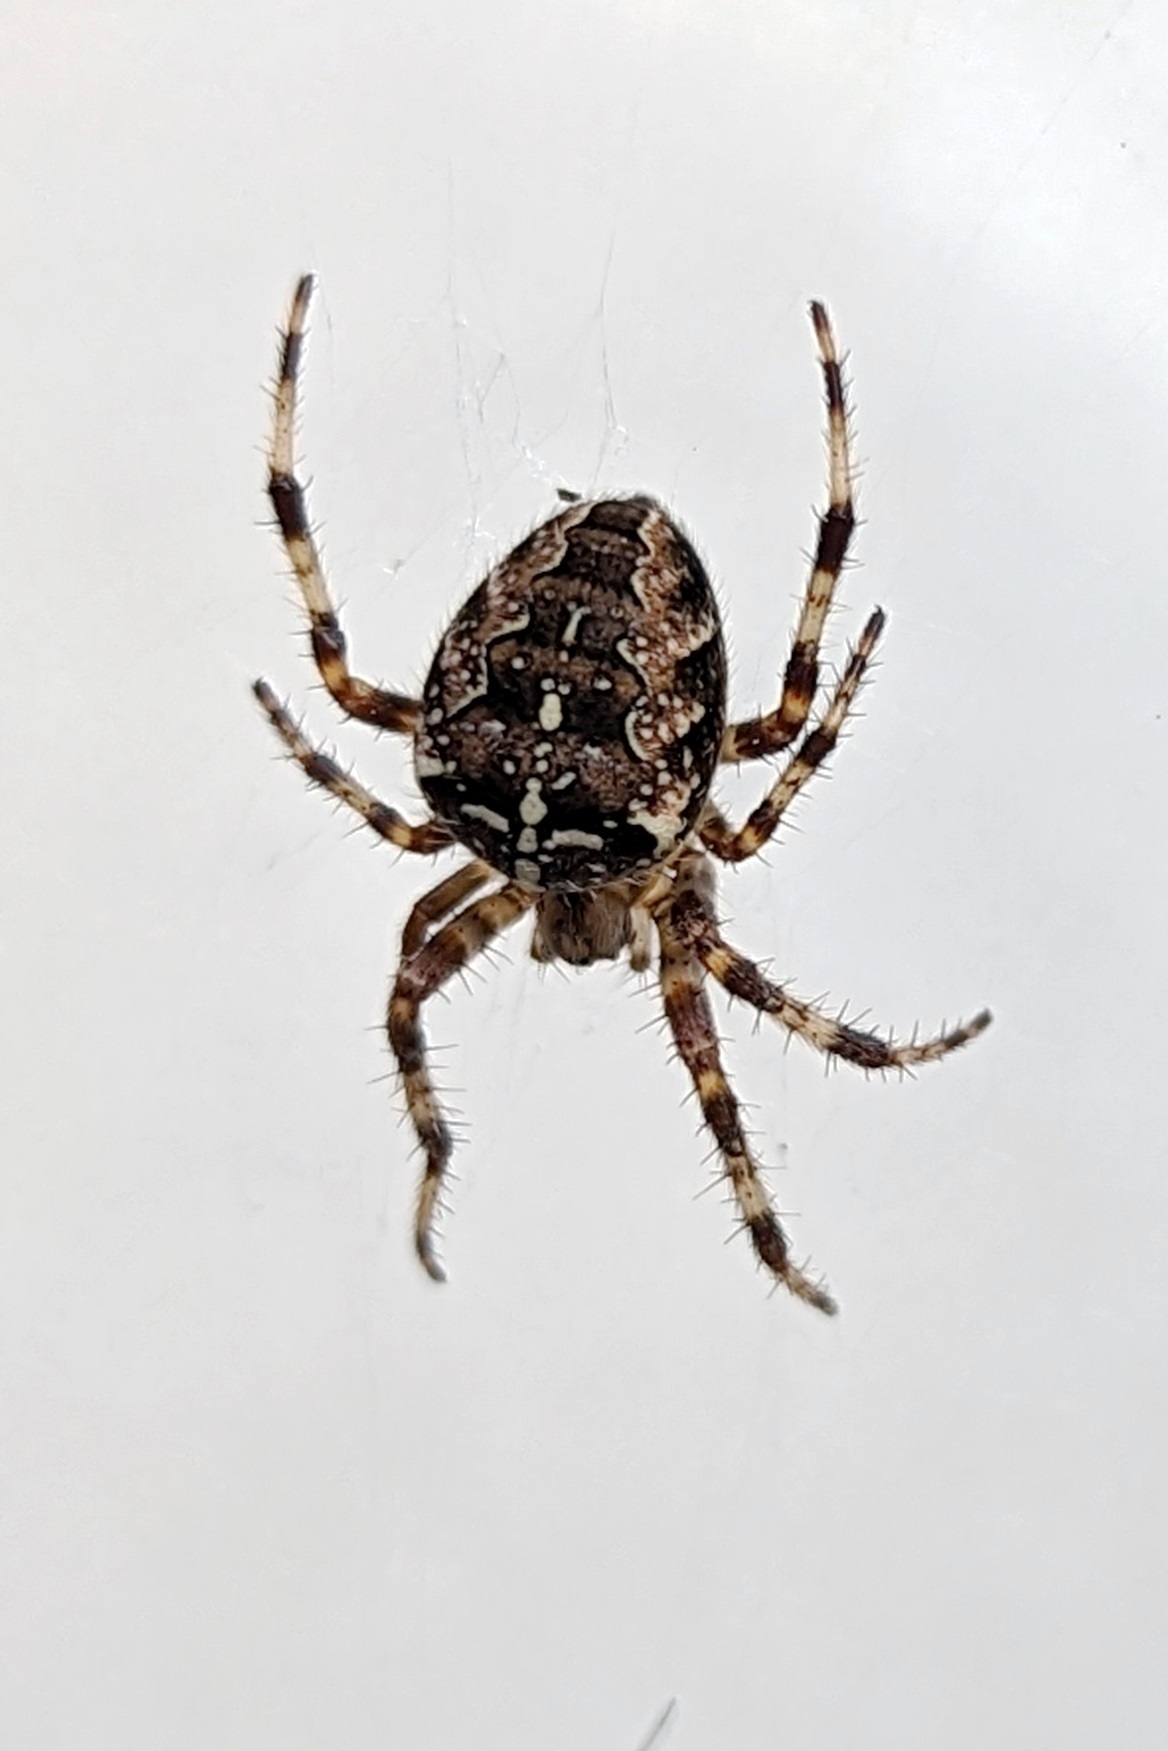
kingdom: Animalia
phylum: Arthropoda
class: Arachnida
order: Araneae
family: Araneidae
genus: Araneus
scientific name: Araneus diadematus
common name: Cross orbweaver
